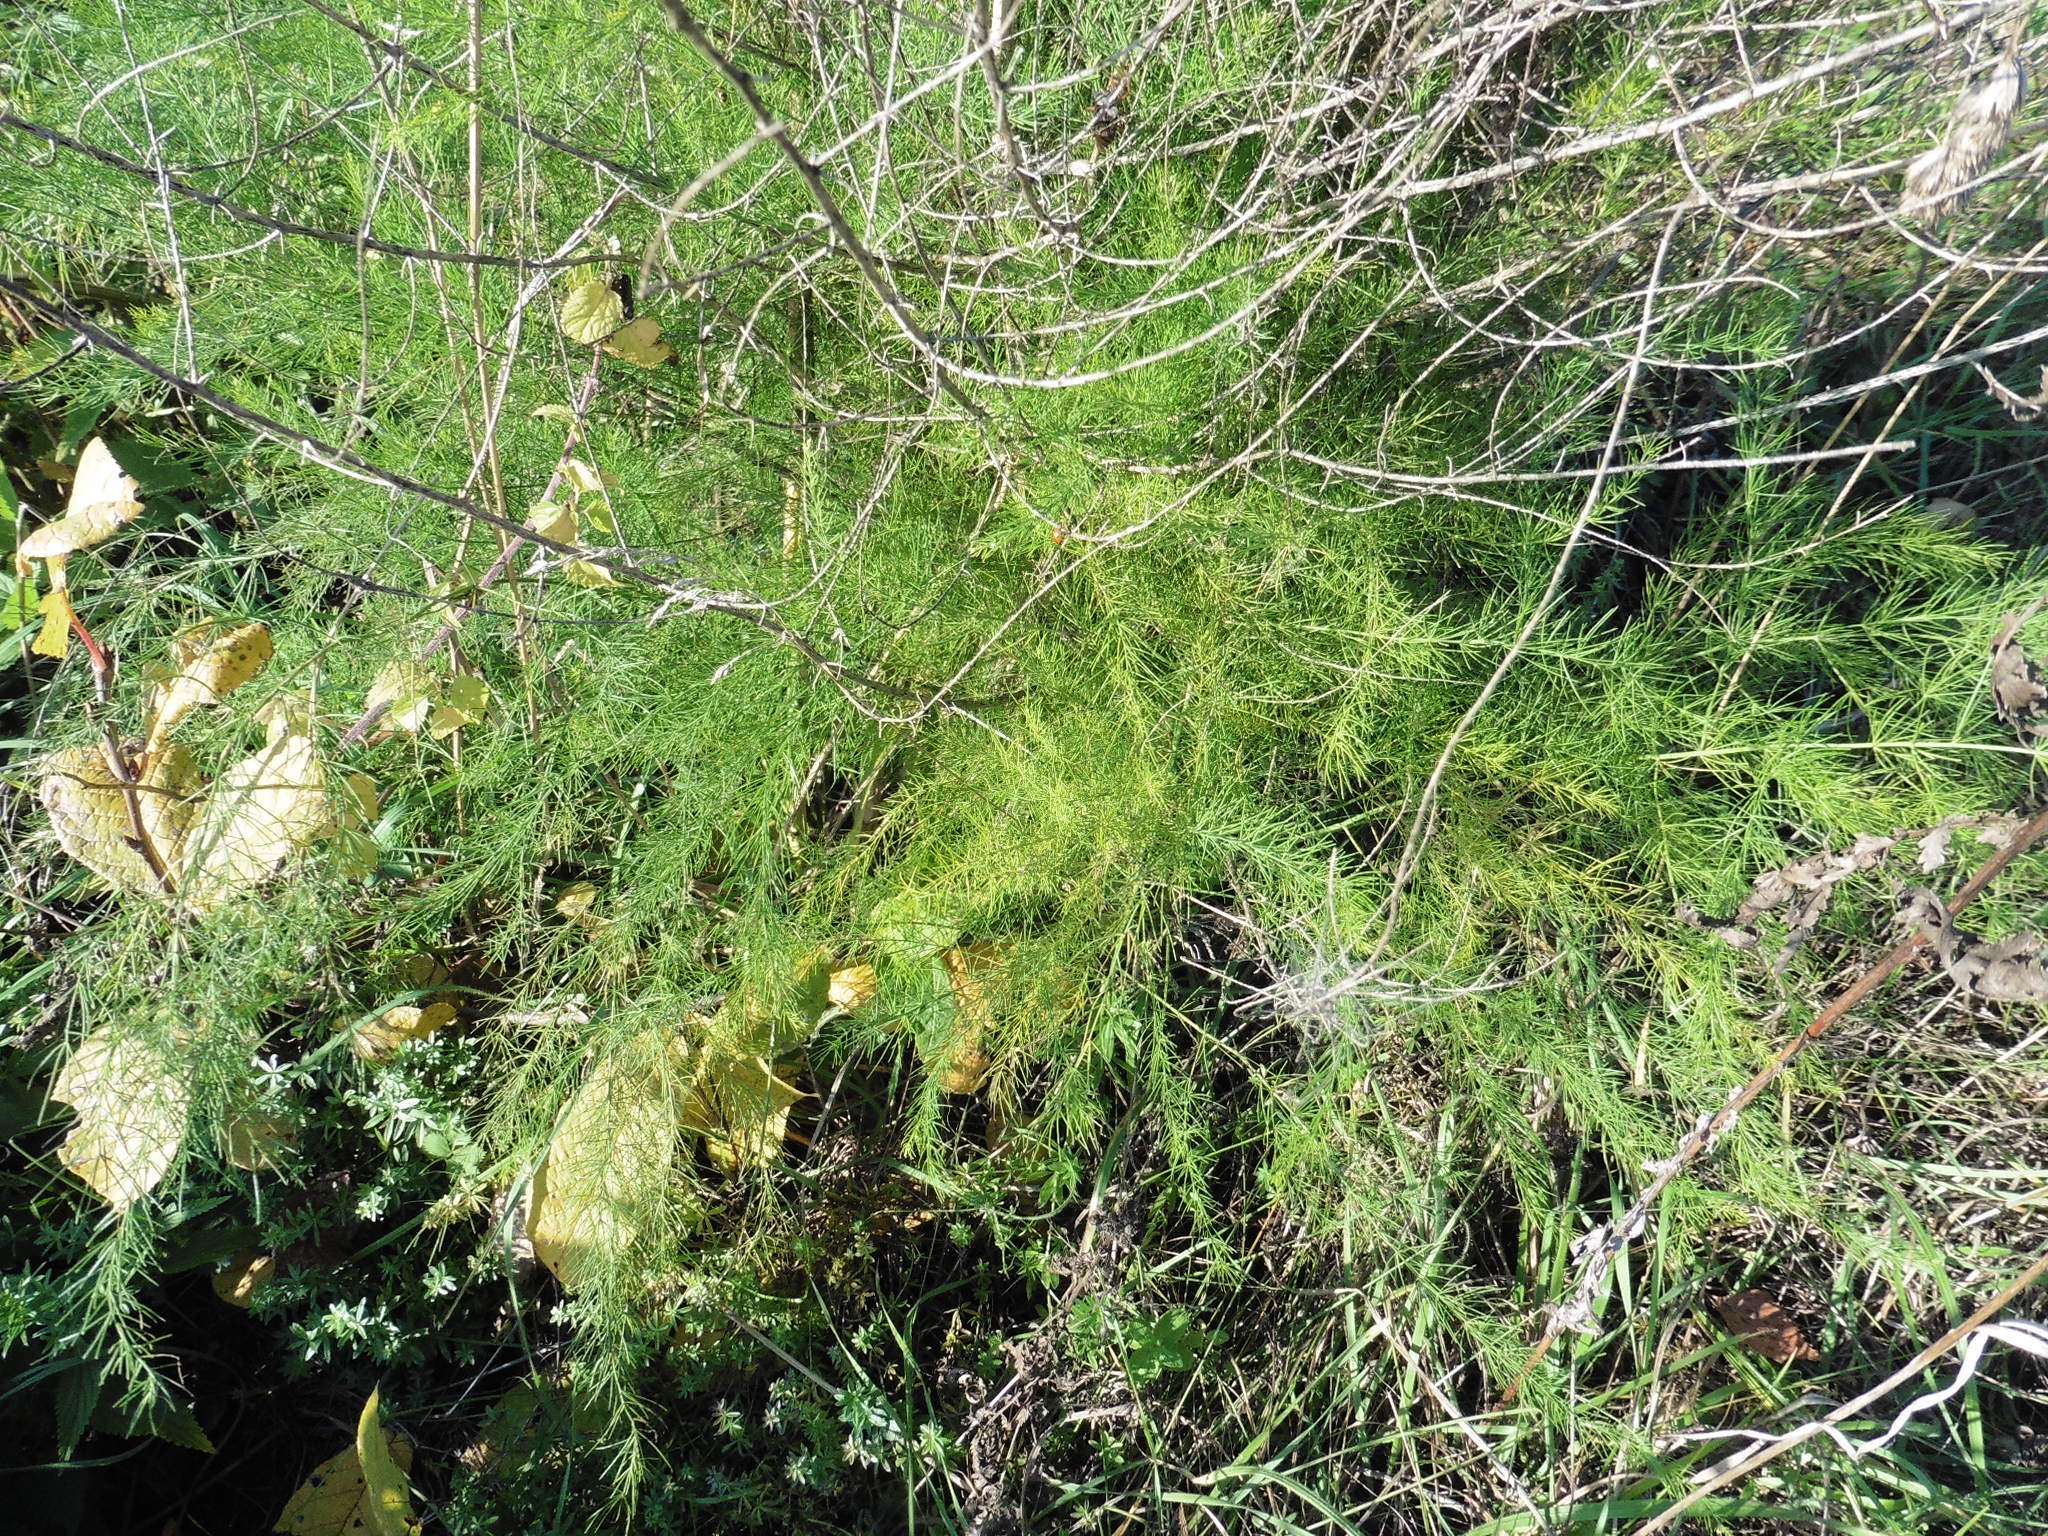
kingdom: Plantae
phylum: Tracheophyta
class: Liliopsida
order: Asparagales
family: Asparagaceae
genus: Asparagus
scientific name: Asparagus officinalis
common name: Garden asparagus
